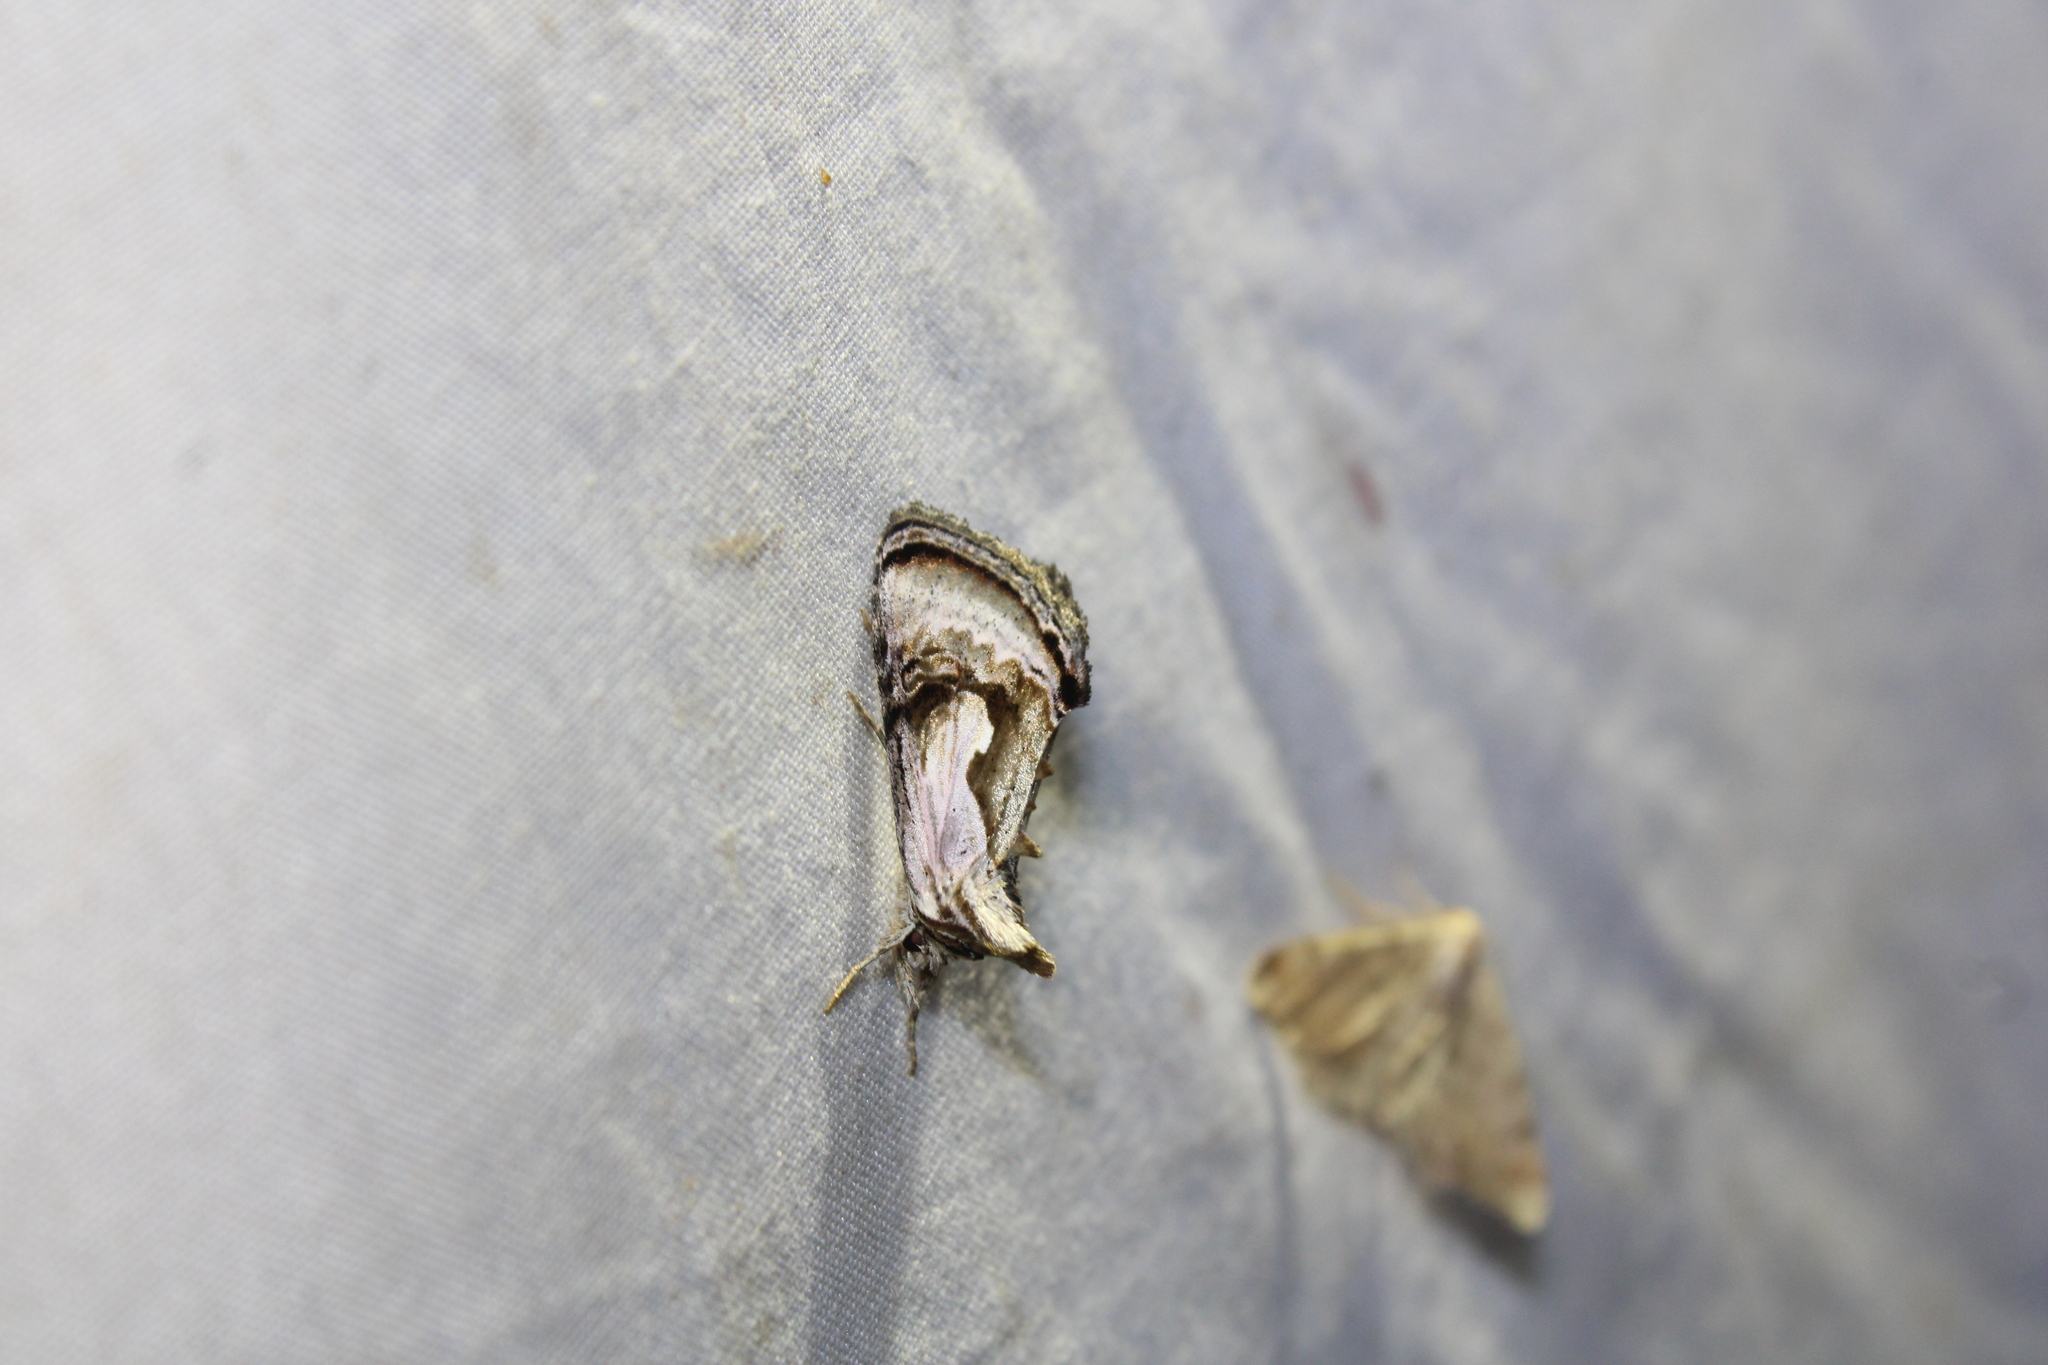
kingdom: Animalia
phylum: Arthropoda
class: Insecta
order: Lepidoptera
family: Noctuidae
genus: Chrysanympha
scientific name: Chrysanympha formosa
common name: Formosa looper moth
